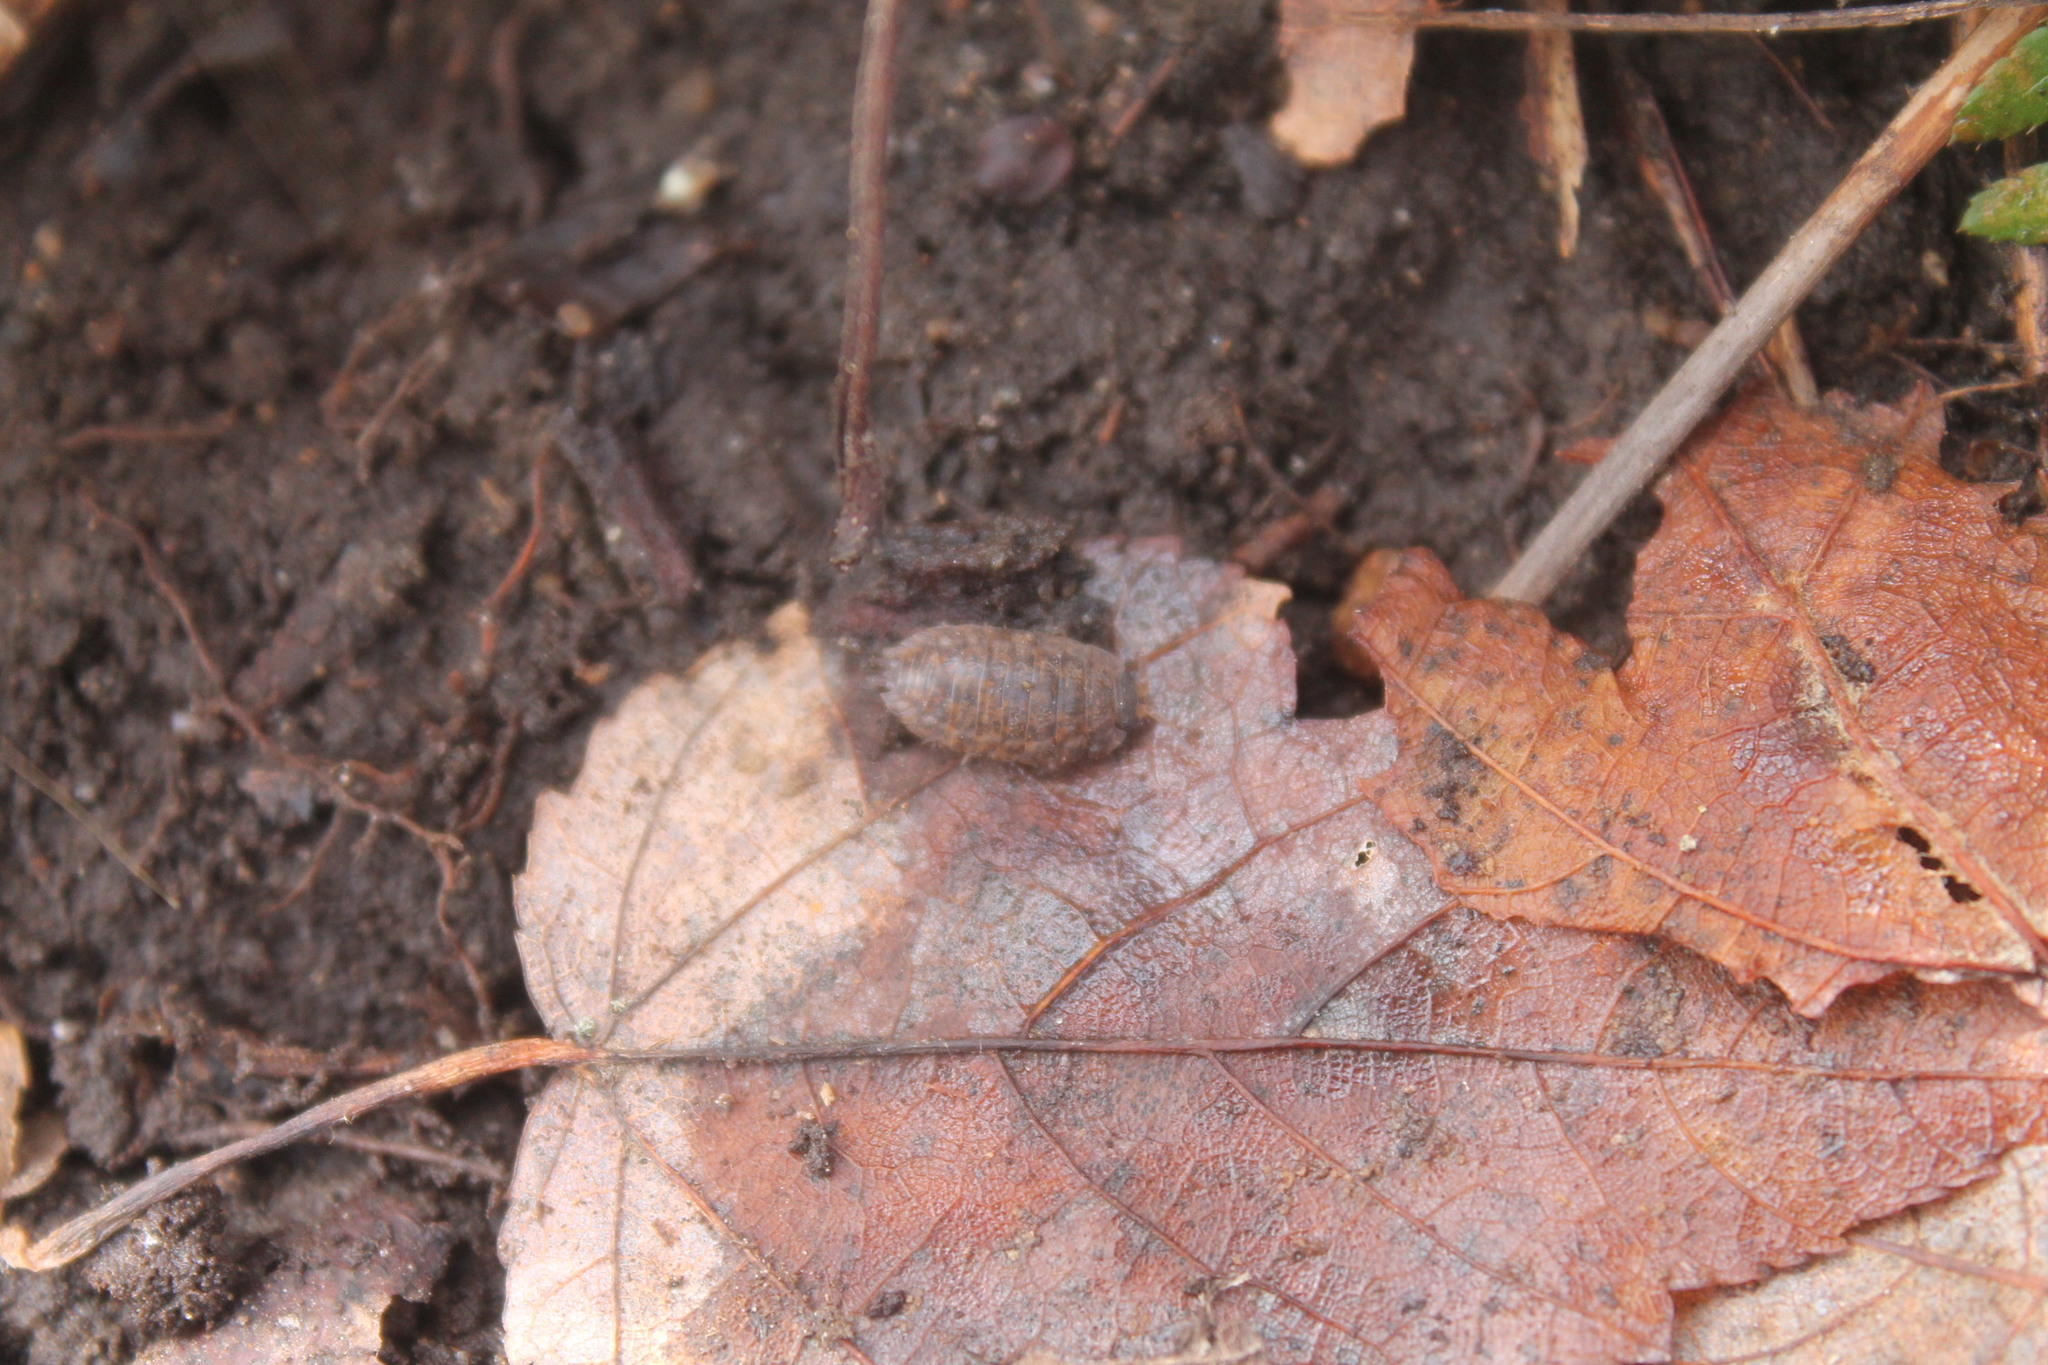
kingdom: Animalia
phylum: Arthropoda
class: Malacostraca
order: Isopoda
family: Trachelipodidae
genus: Trachelipus
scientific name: Trachelipus rathkii
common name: Isopod
